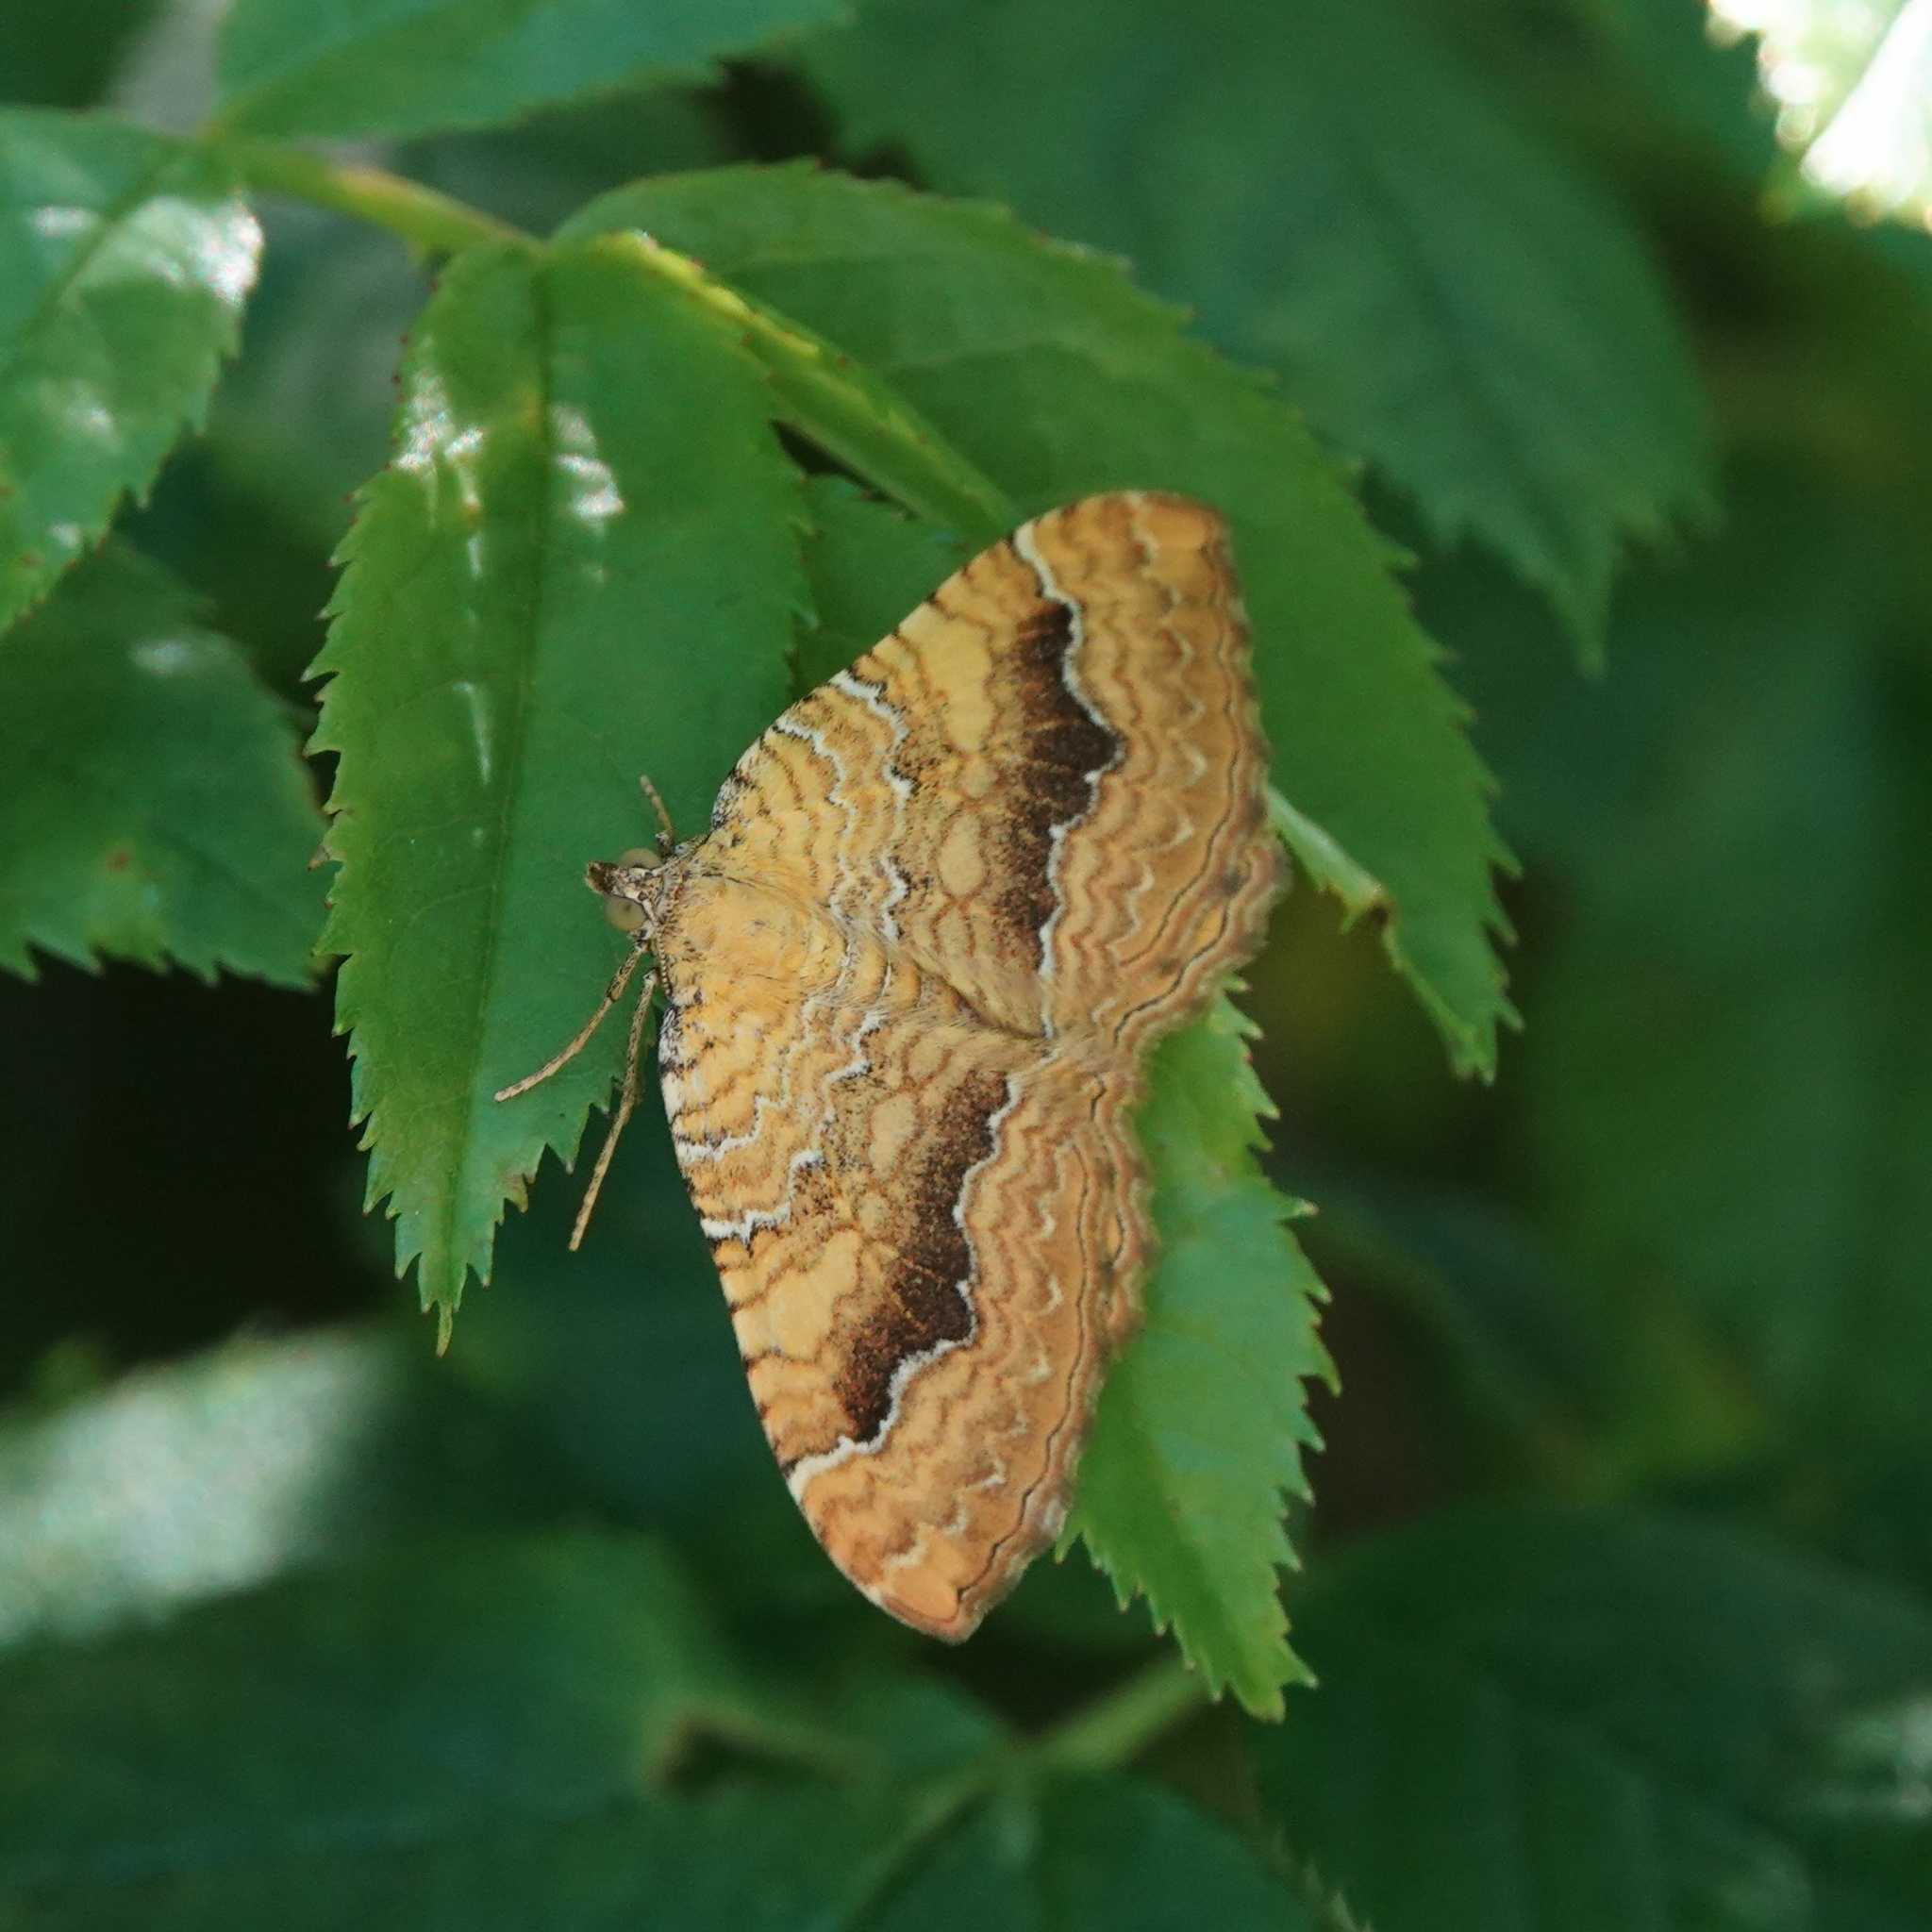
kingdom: Animalia
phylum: Arthropoda
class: Insecta
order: Lepidoptera
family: Geometridae
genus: Camptogramma
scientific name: Camptogramma bilineata
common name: Yellow shell
